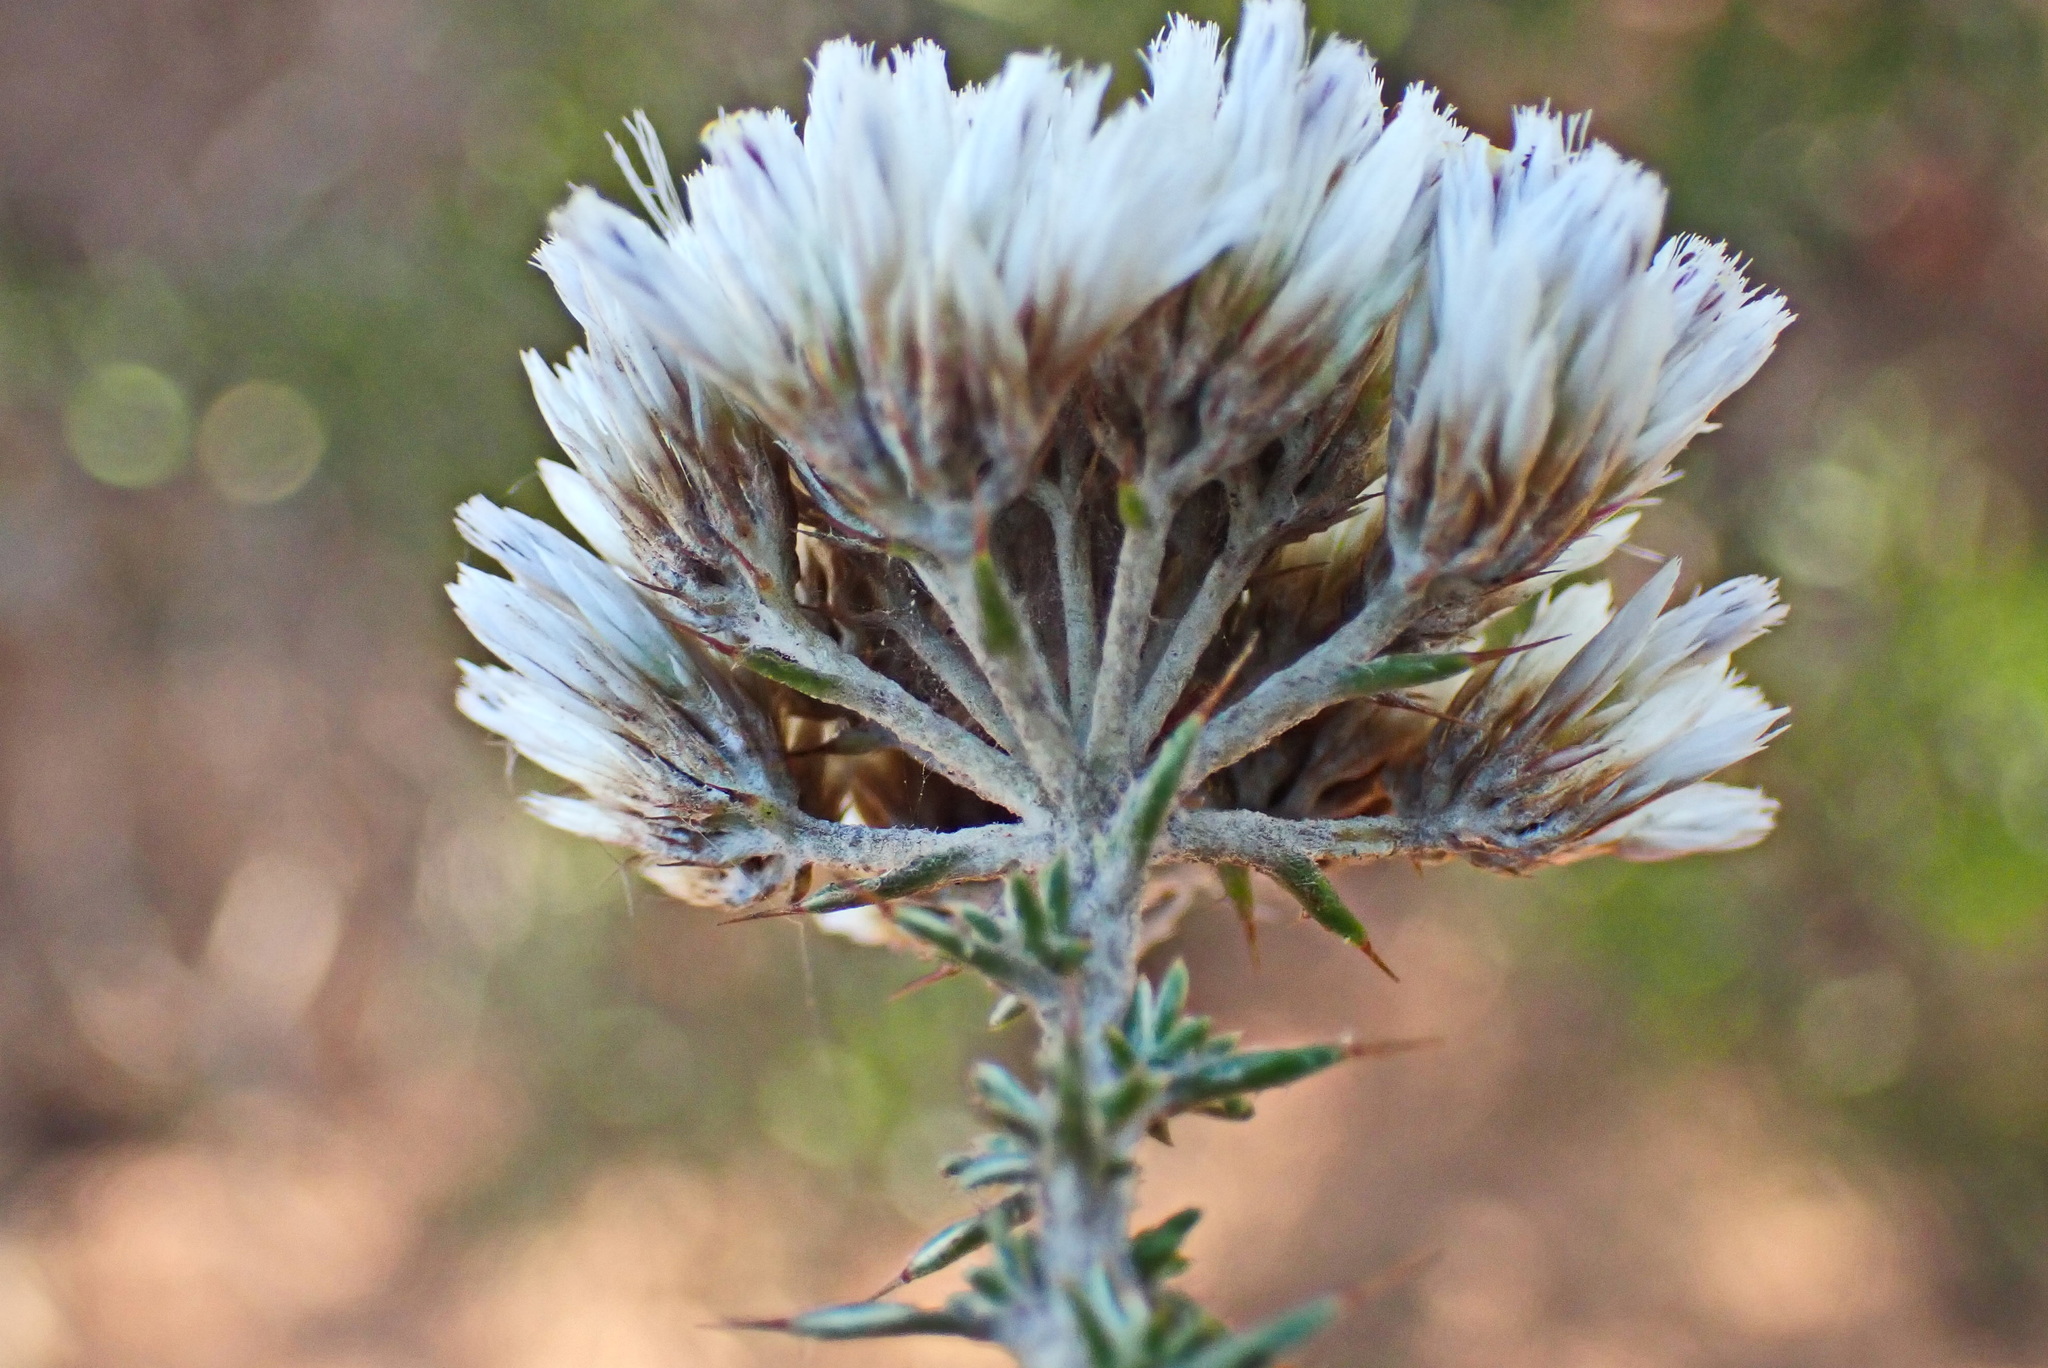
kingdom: Plantae
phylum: Tracheophyta
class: Magnoliopsida
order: Asterales
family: Asteraceae
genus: Metalasia
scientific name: Metalasia acuta
